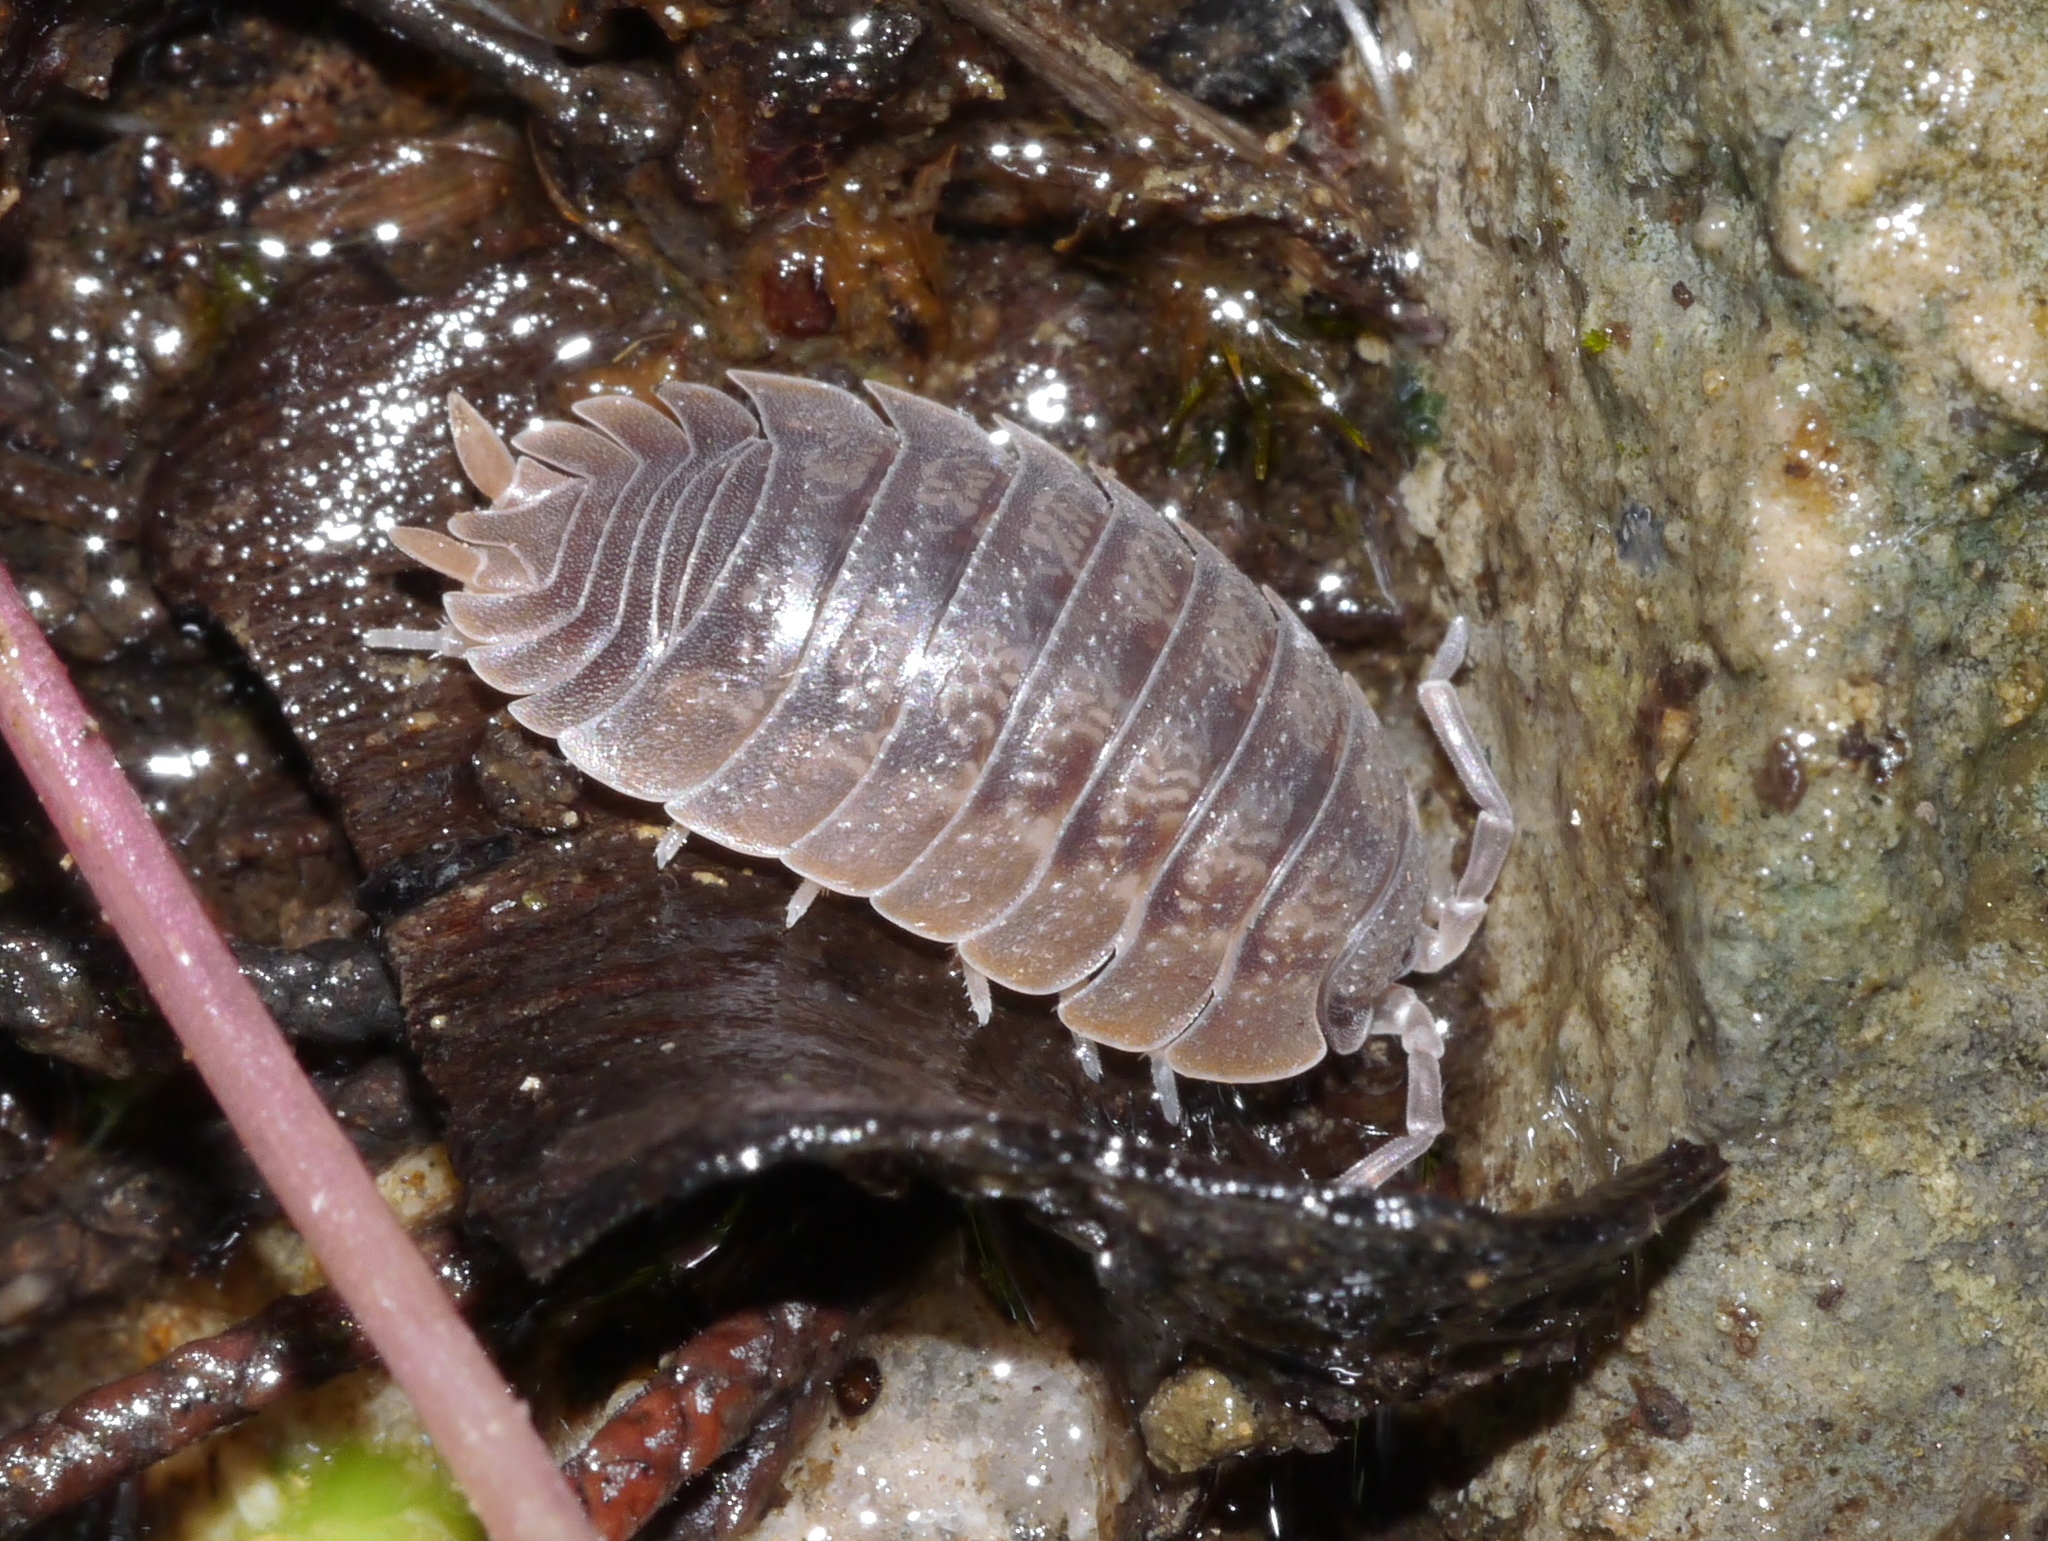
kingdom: Animalia
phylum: Arthropoda
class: Malacostraca
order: Isopoda
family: Porcellionidae
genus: Porcellio
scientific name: Porcellio dilatatus
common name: Isopod
